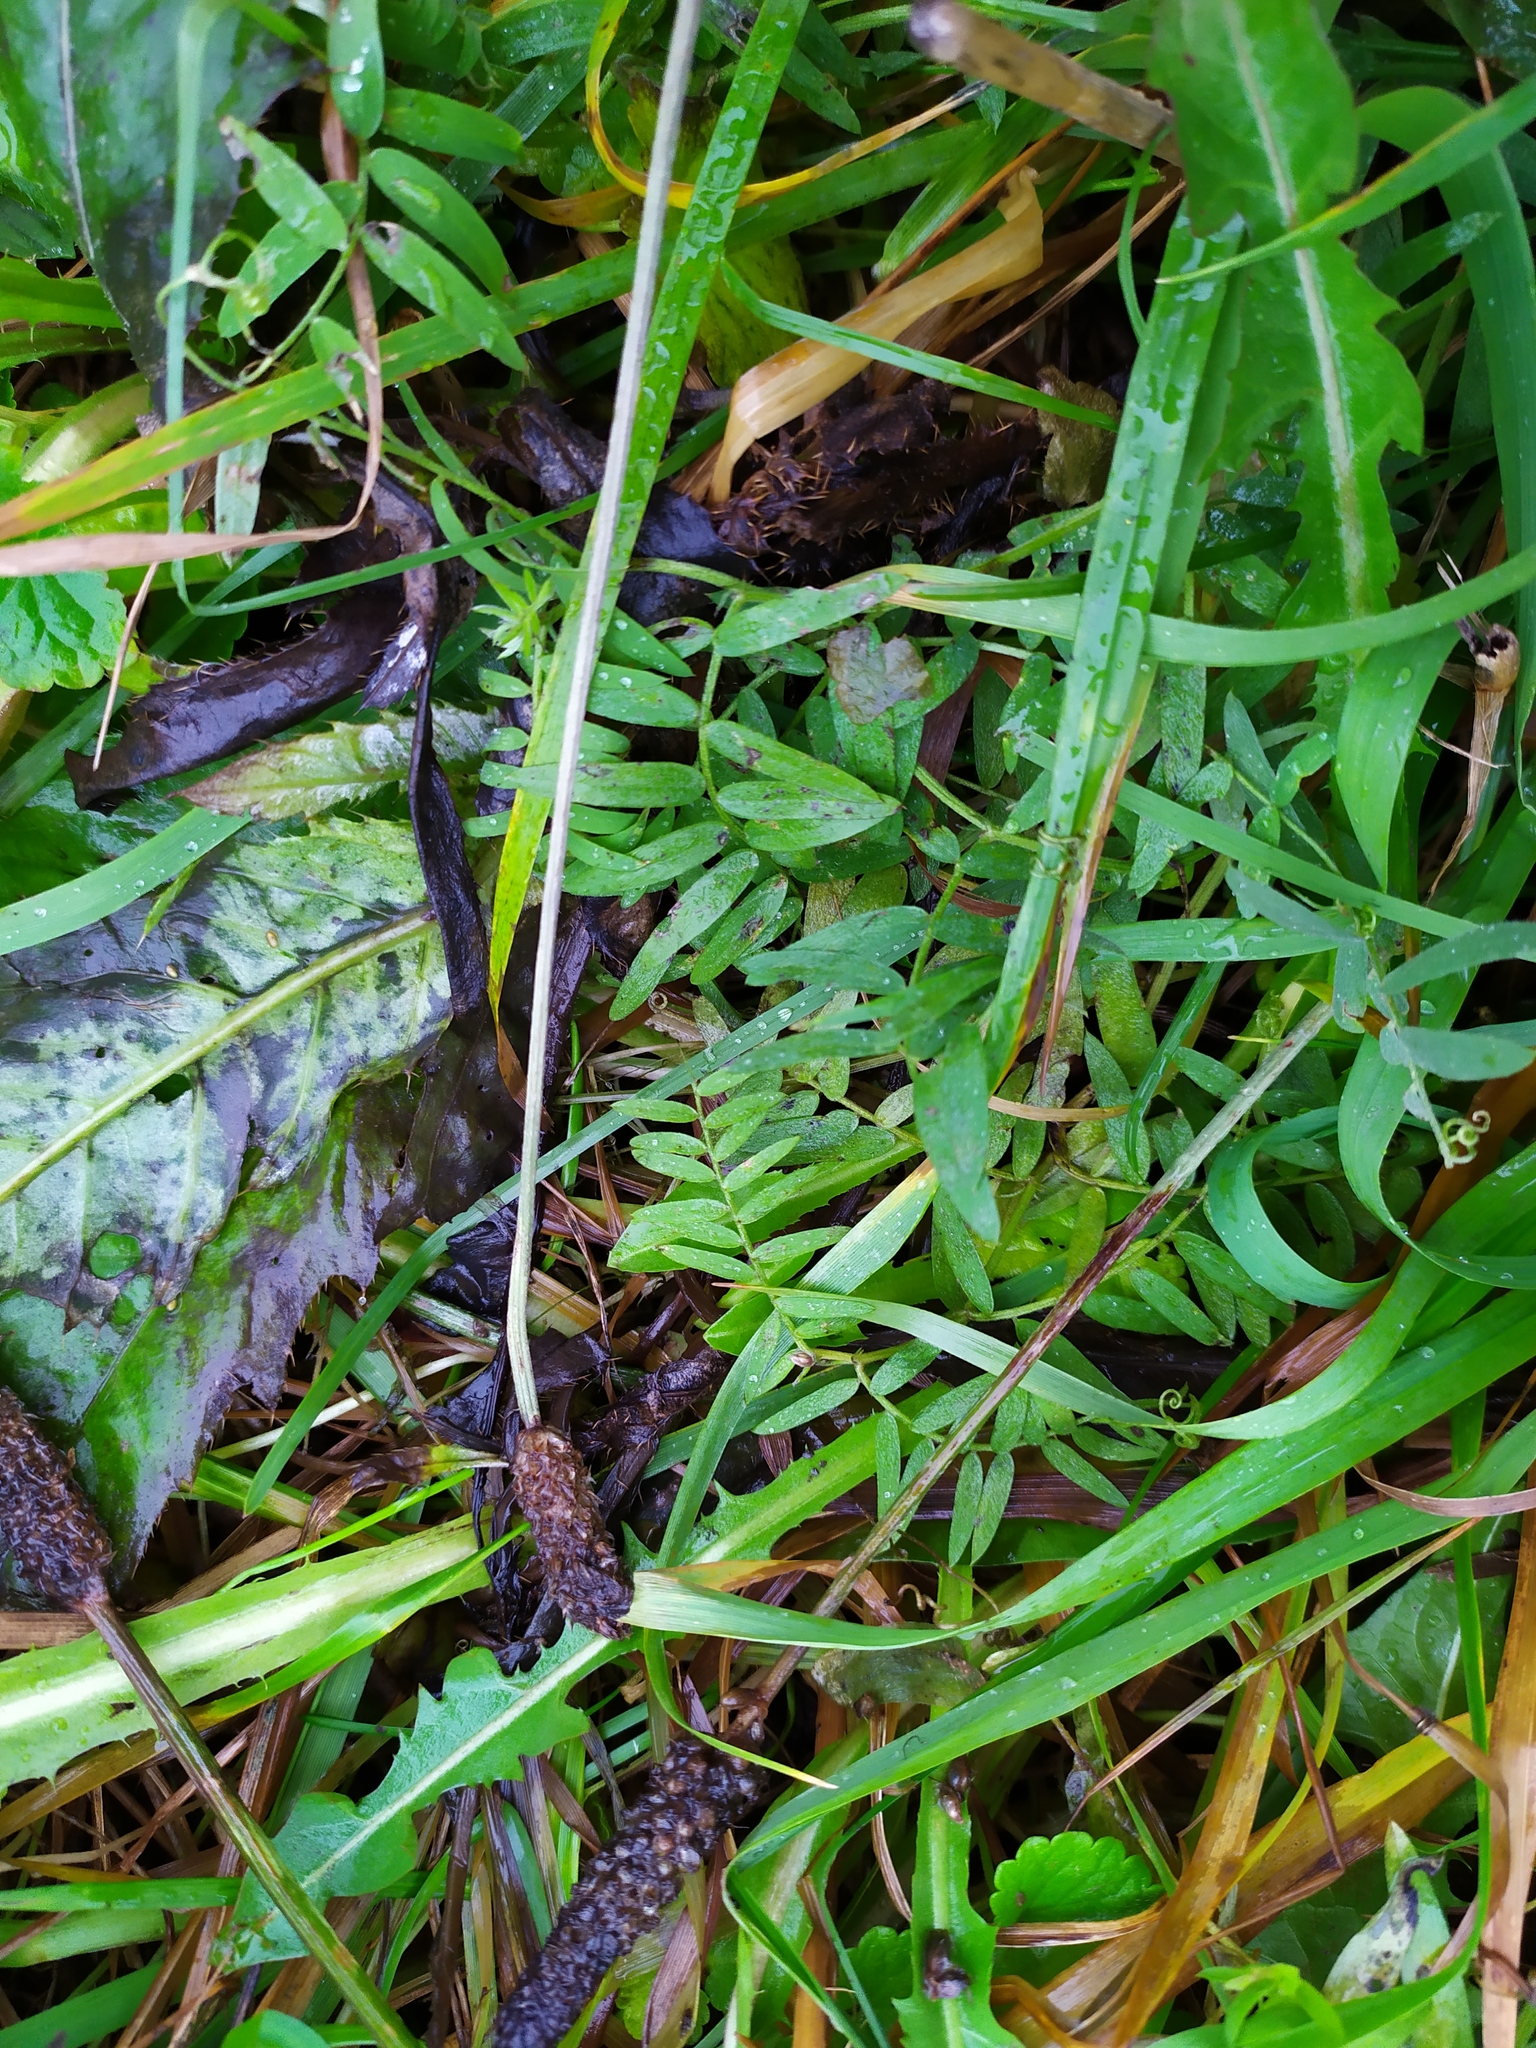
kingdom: Plantae
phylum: Tracheophyta
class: Magnoliopsida
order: Fabales
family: Fabaceae
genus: Vicia
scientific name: Vicia cracca
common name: Bird vetch
